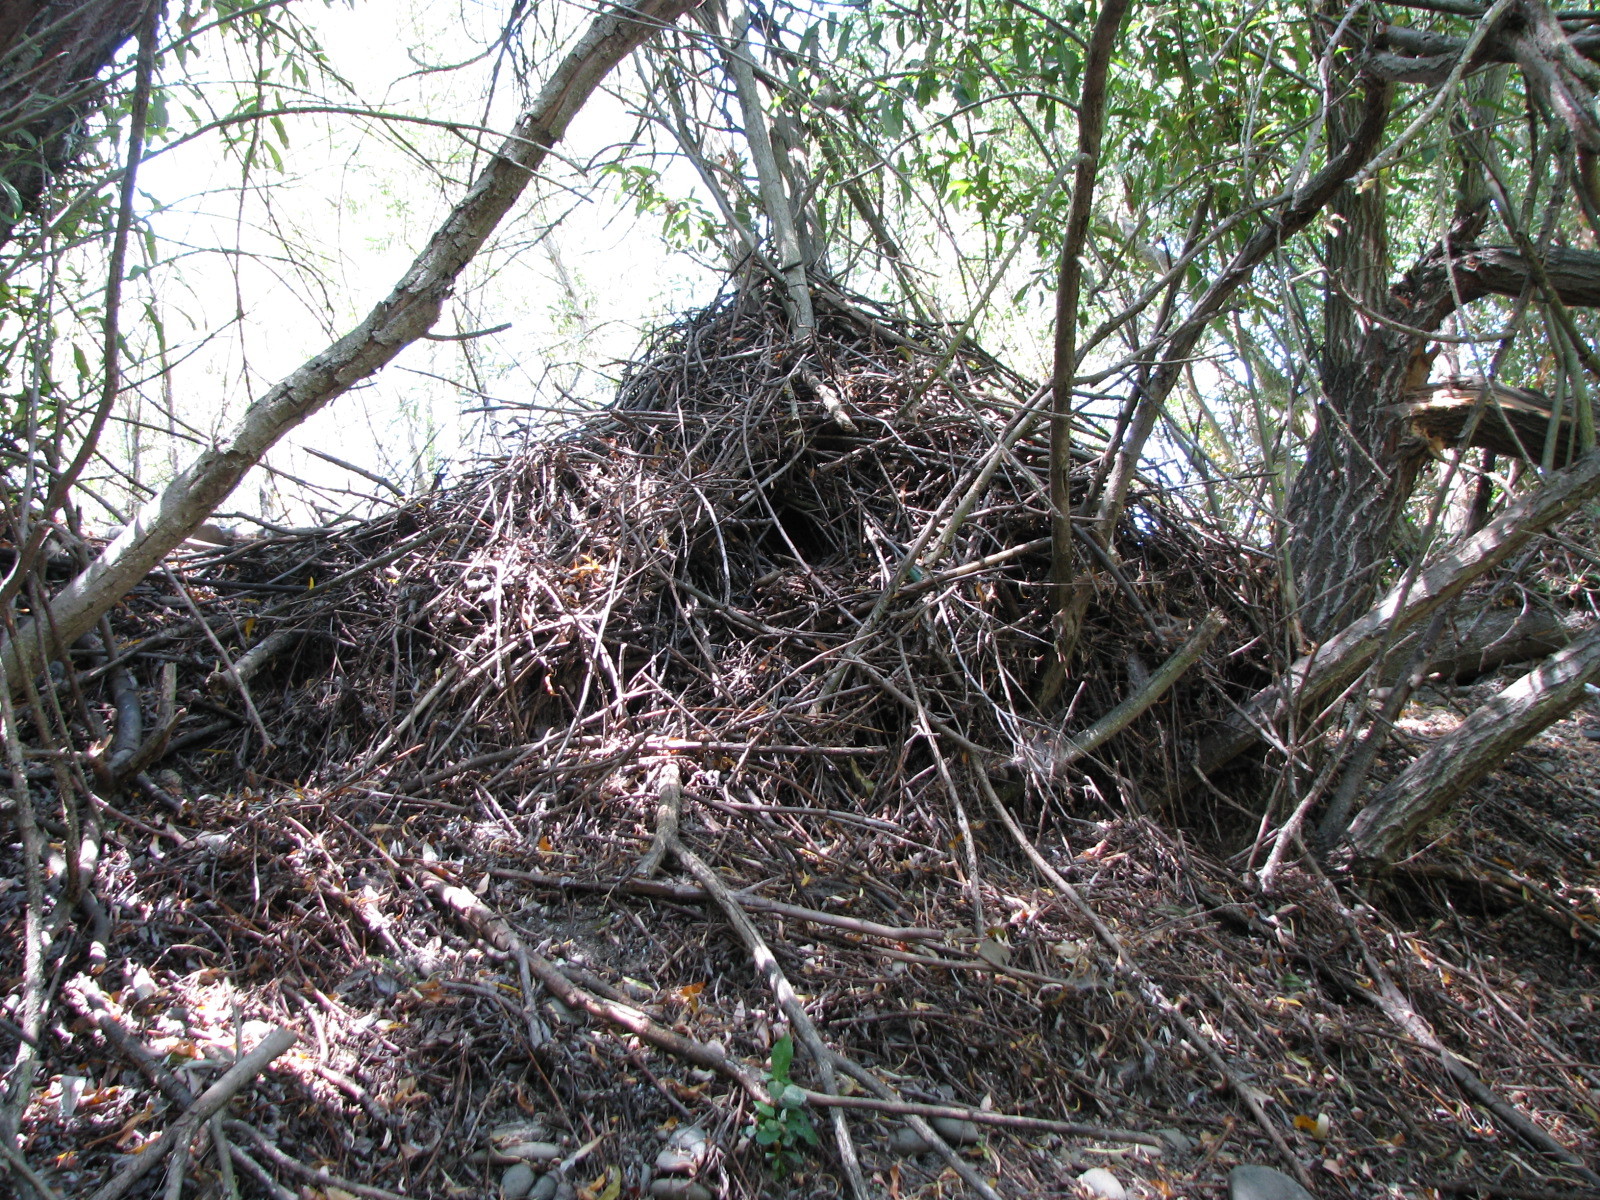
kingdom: Animalia
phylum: Chordata
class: Mammalia
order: Rodentia
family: Cricetidae
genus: Neotoma
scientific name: Neotoma fuscipes
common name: Dusky-footed woodrat
